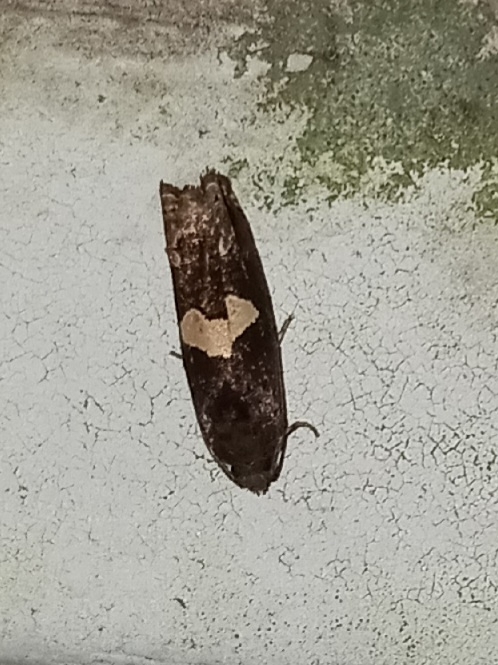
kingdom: Animalia
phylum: Arthropoda
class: Insecta
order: Lepidoptera
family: Tortricidae
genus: Epiblema
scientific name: Epiblema otiosana
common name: Bidens borer moth
